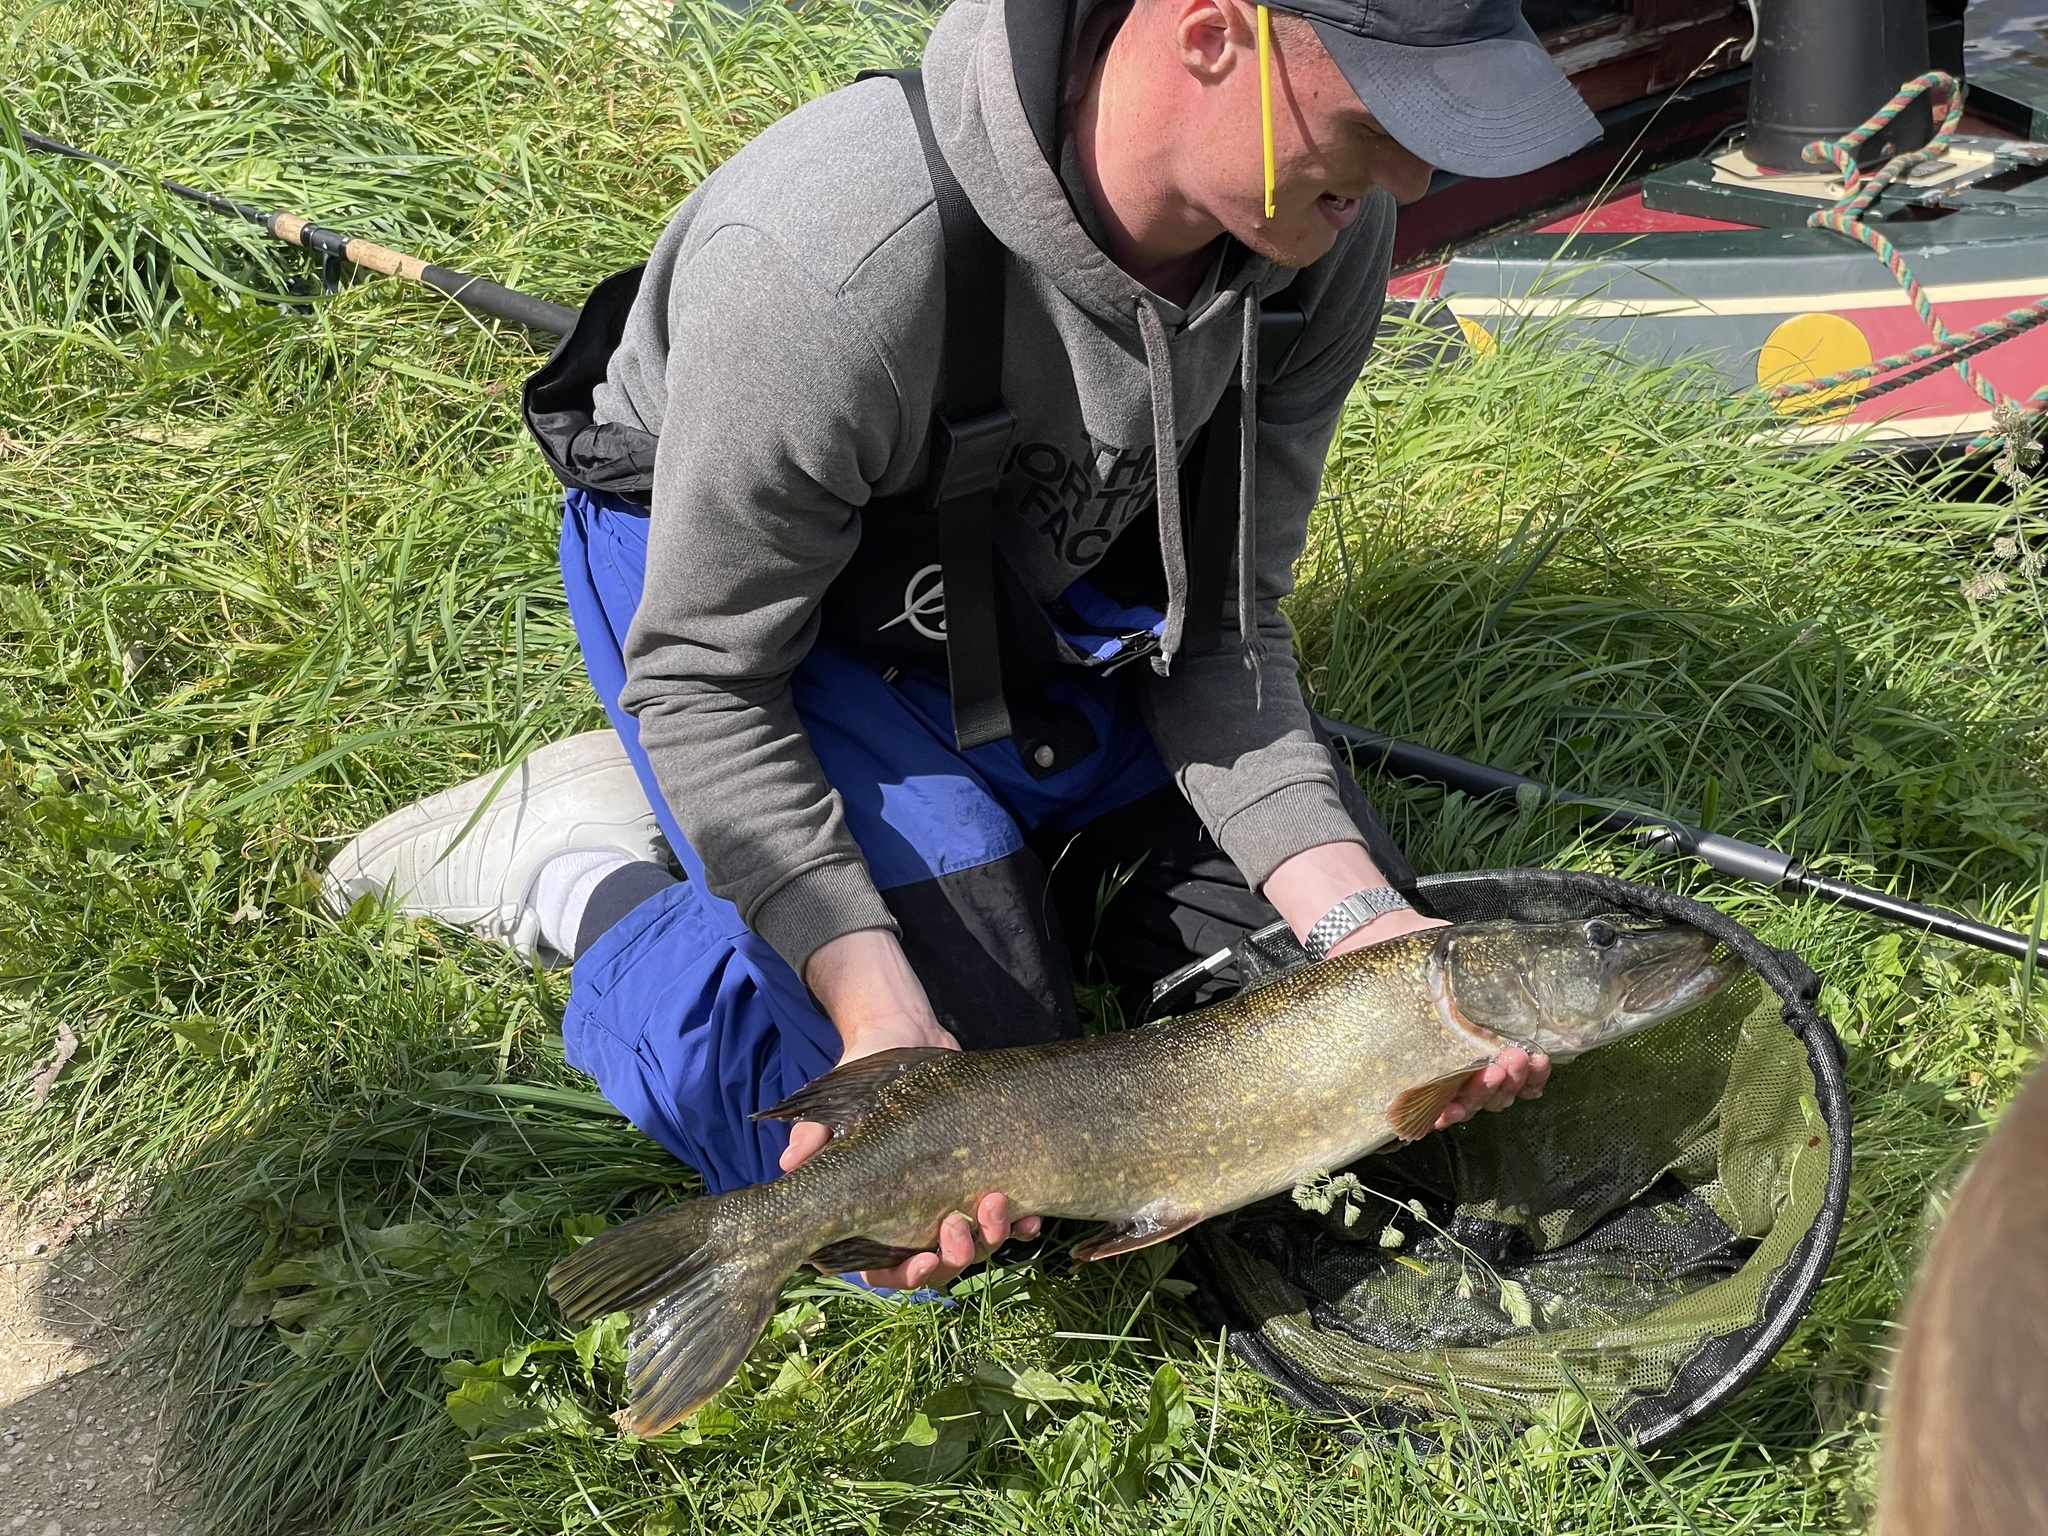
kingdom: Animalia
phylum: Chordata
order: Esociformes
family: Esocidae
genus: Esox
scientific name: Esox lucius
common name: Northern pike
